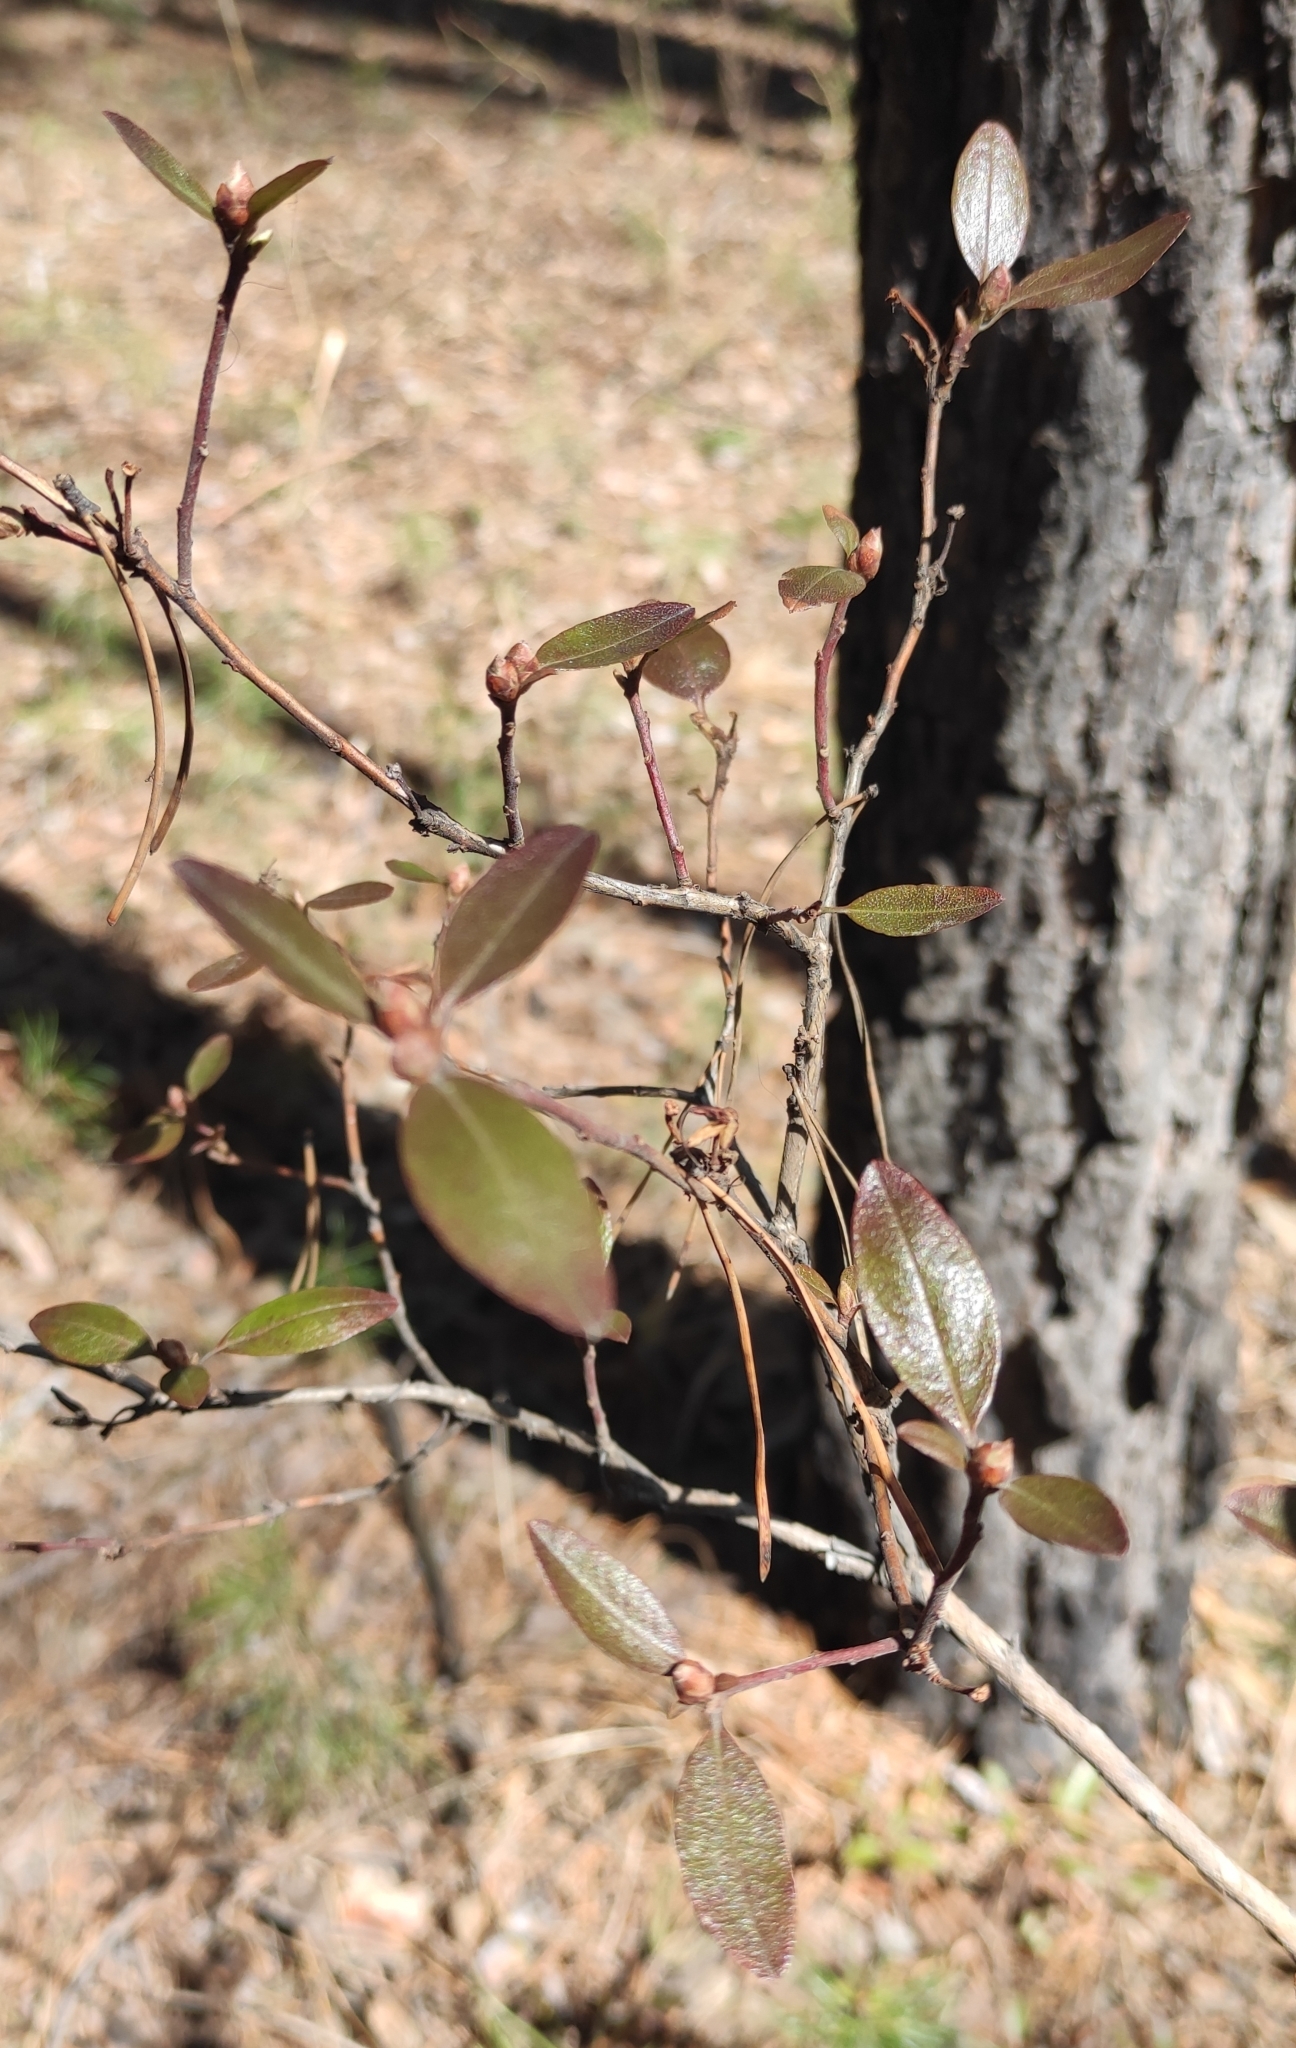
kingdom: Plantae
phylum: Tracheophyta
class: Magnoliopsida
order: Ericales
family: Ericaceae
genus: Rhododendron
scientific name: Rhododendron dauricum
